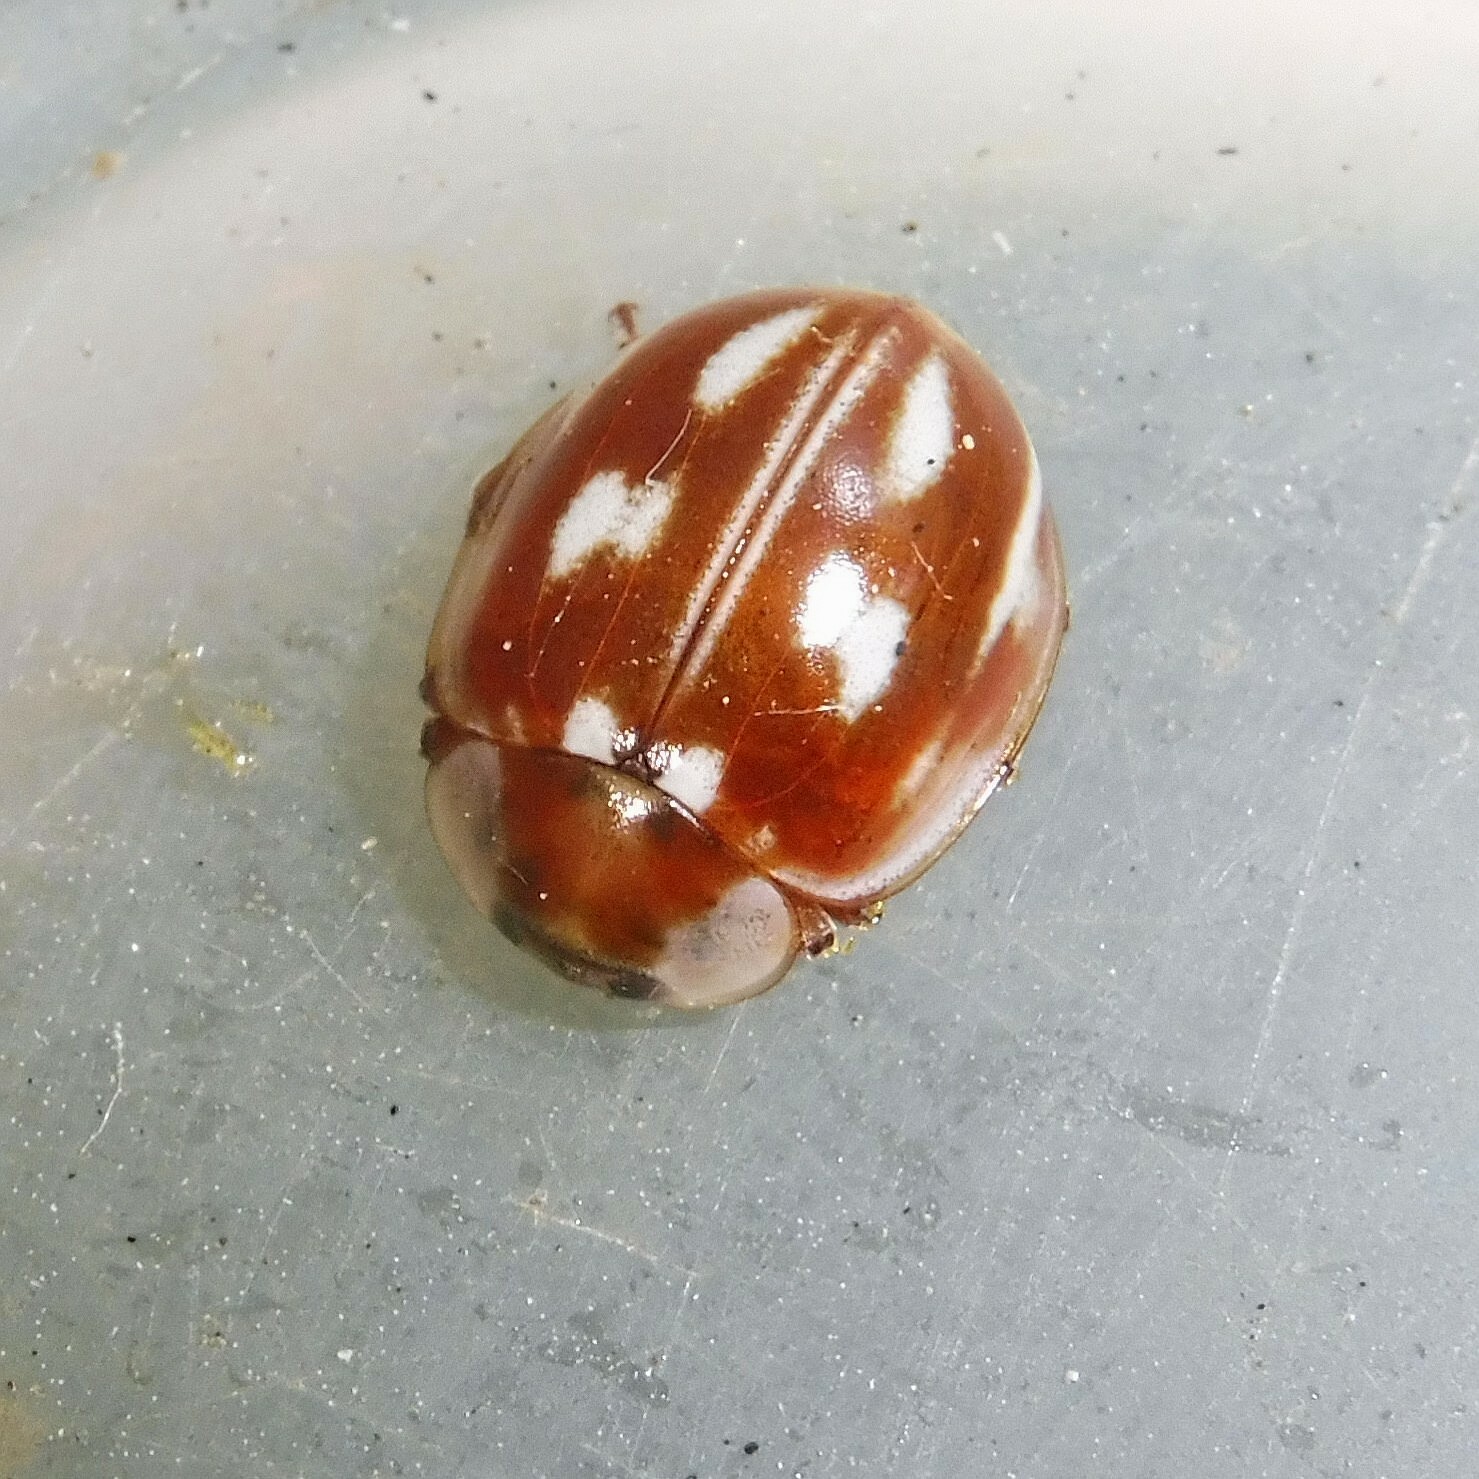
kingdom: Animalia
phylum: Arthropoda
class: Insecta
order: Coleoptera
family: Coccinellidae
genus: Myzia
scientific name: Myzia oblongoguttata
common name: Striped ladybird
